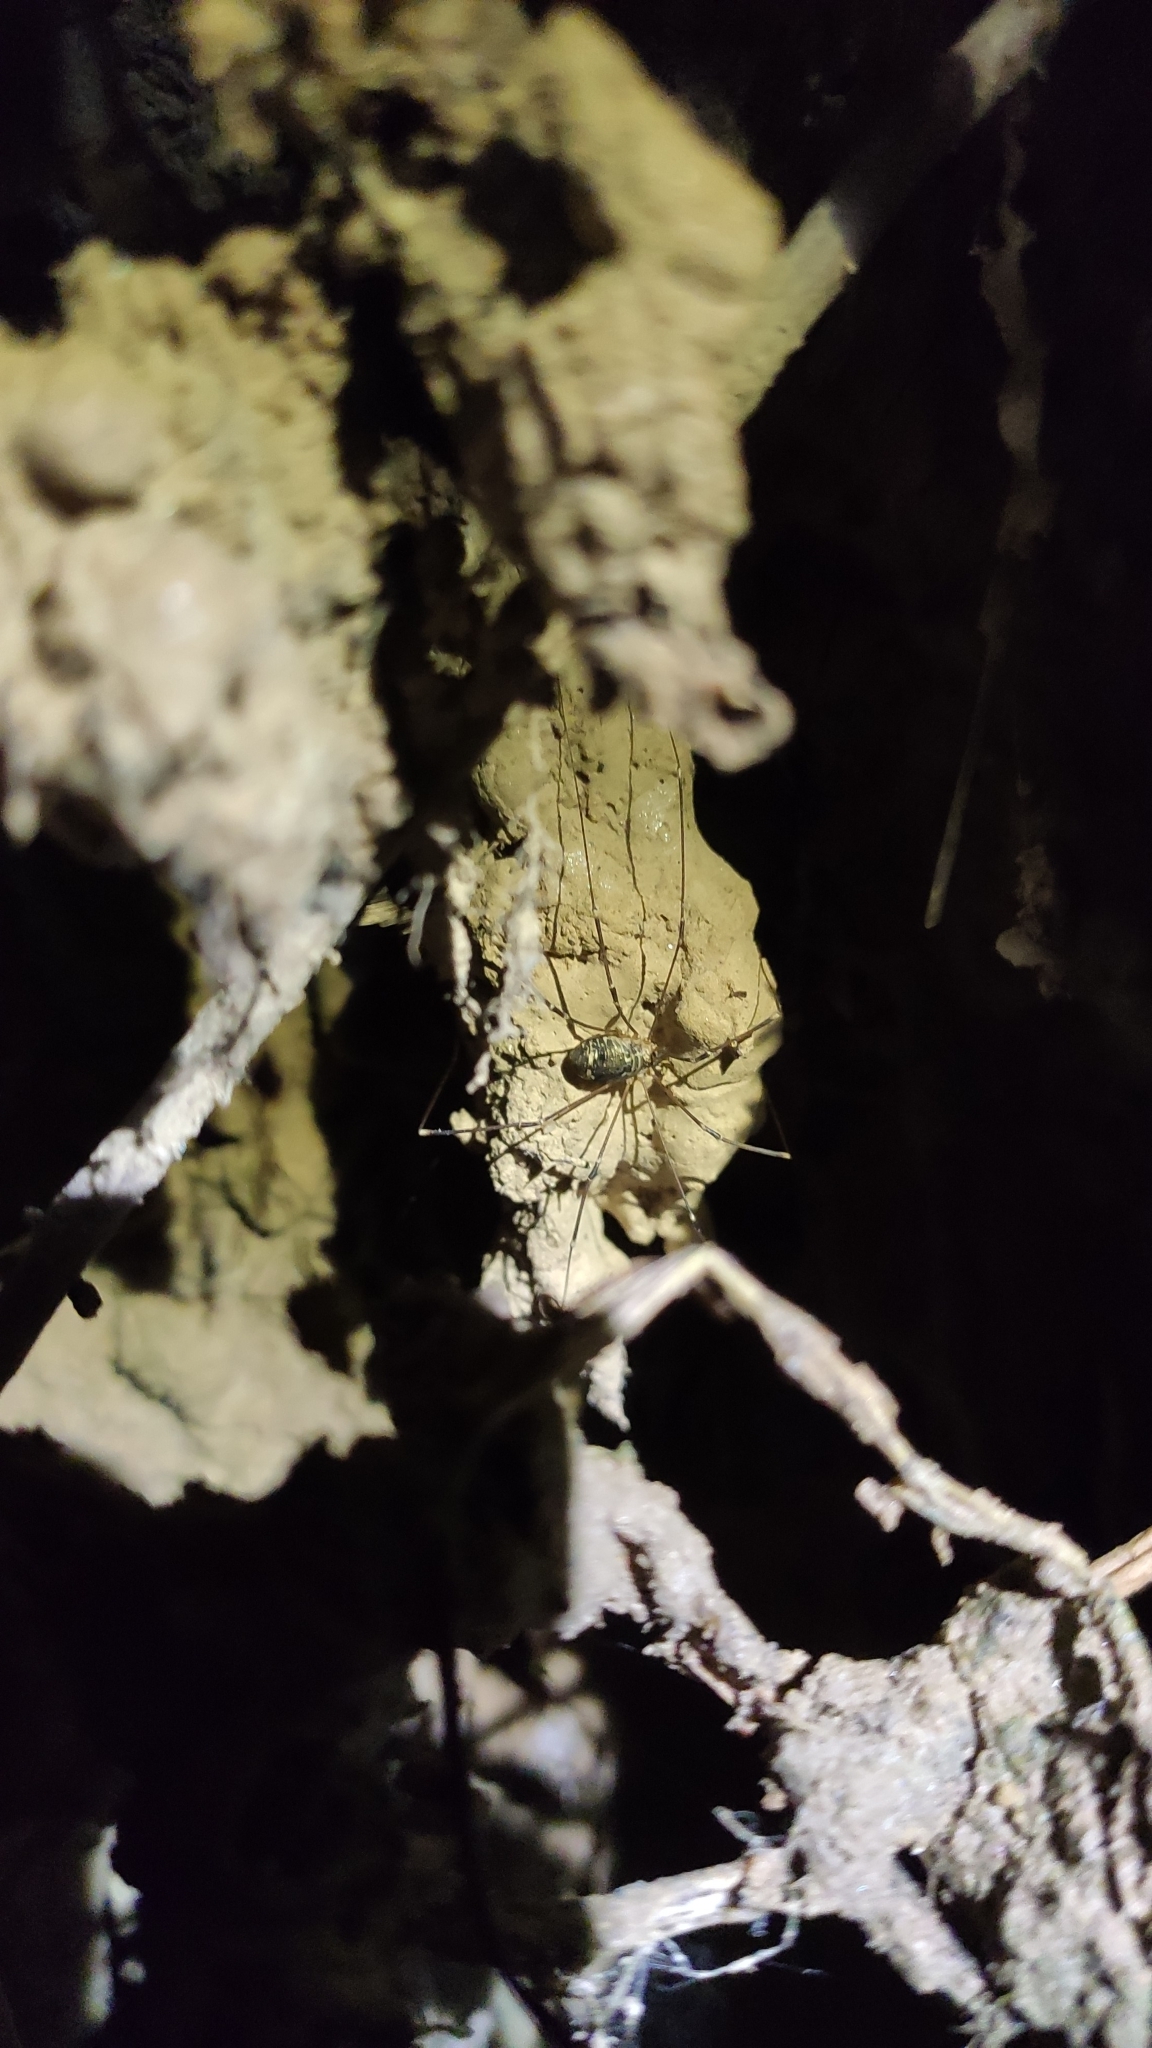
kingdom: Animalia
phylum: Arthropoda
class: Arachnida
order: Opiliones
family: Sclerosomatidae
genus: Leiobunum
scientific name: Leiobunum gracile
